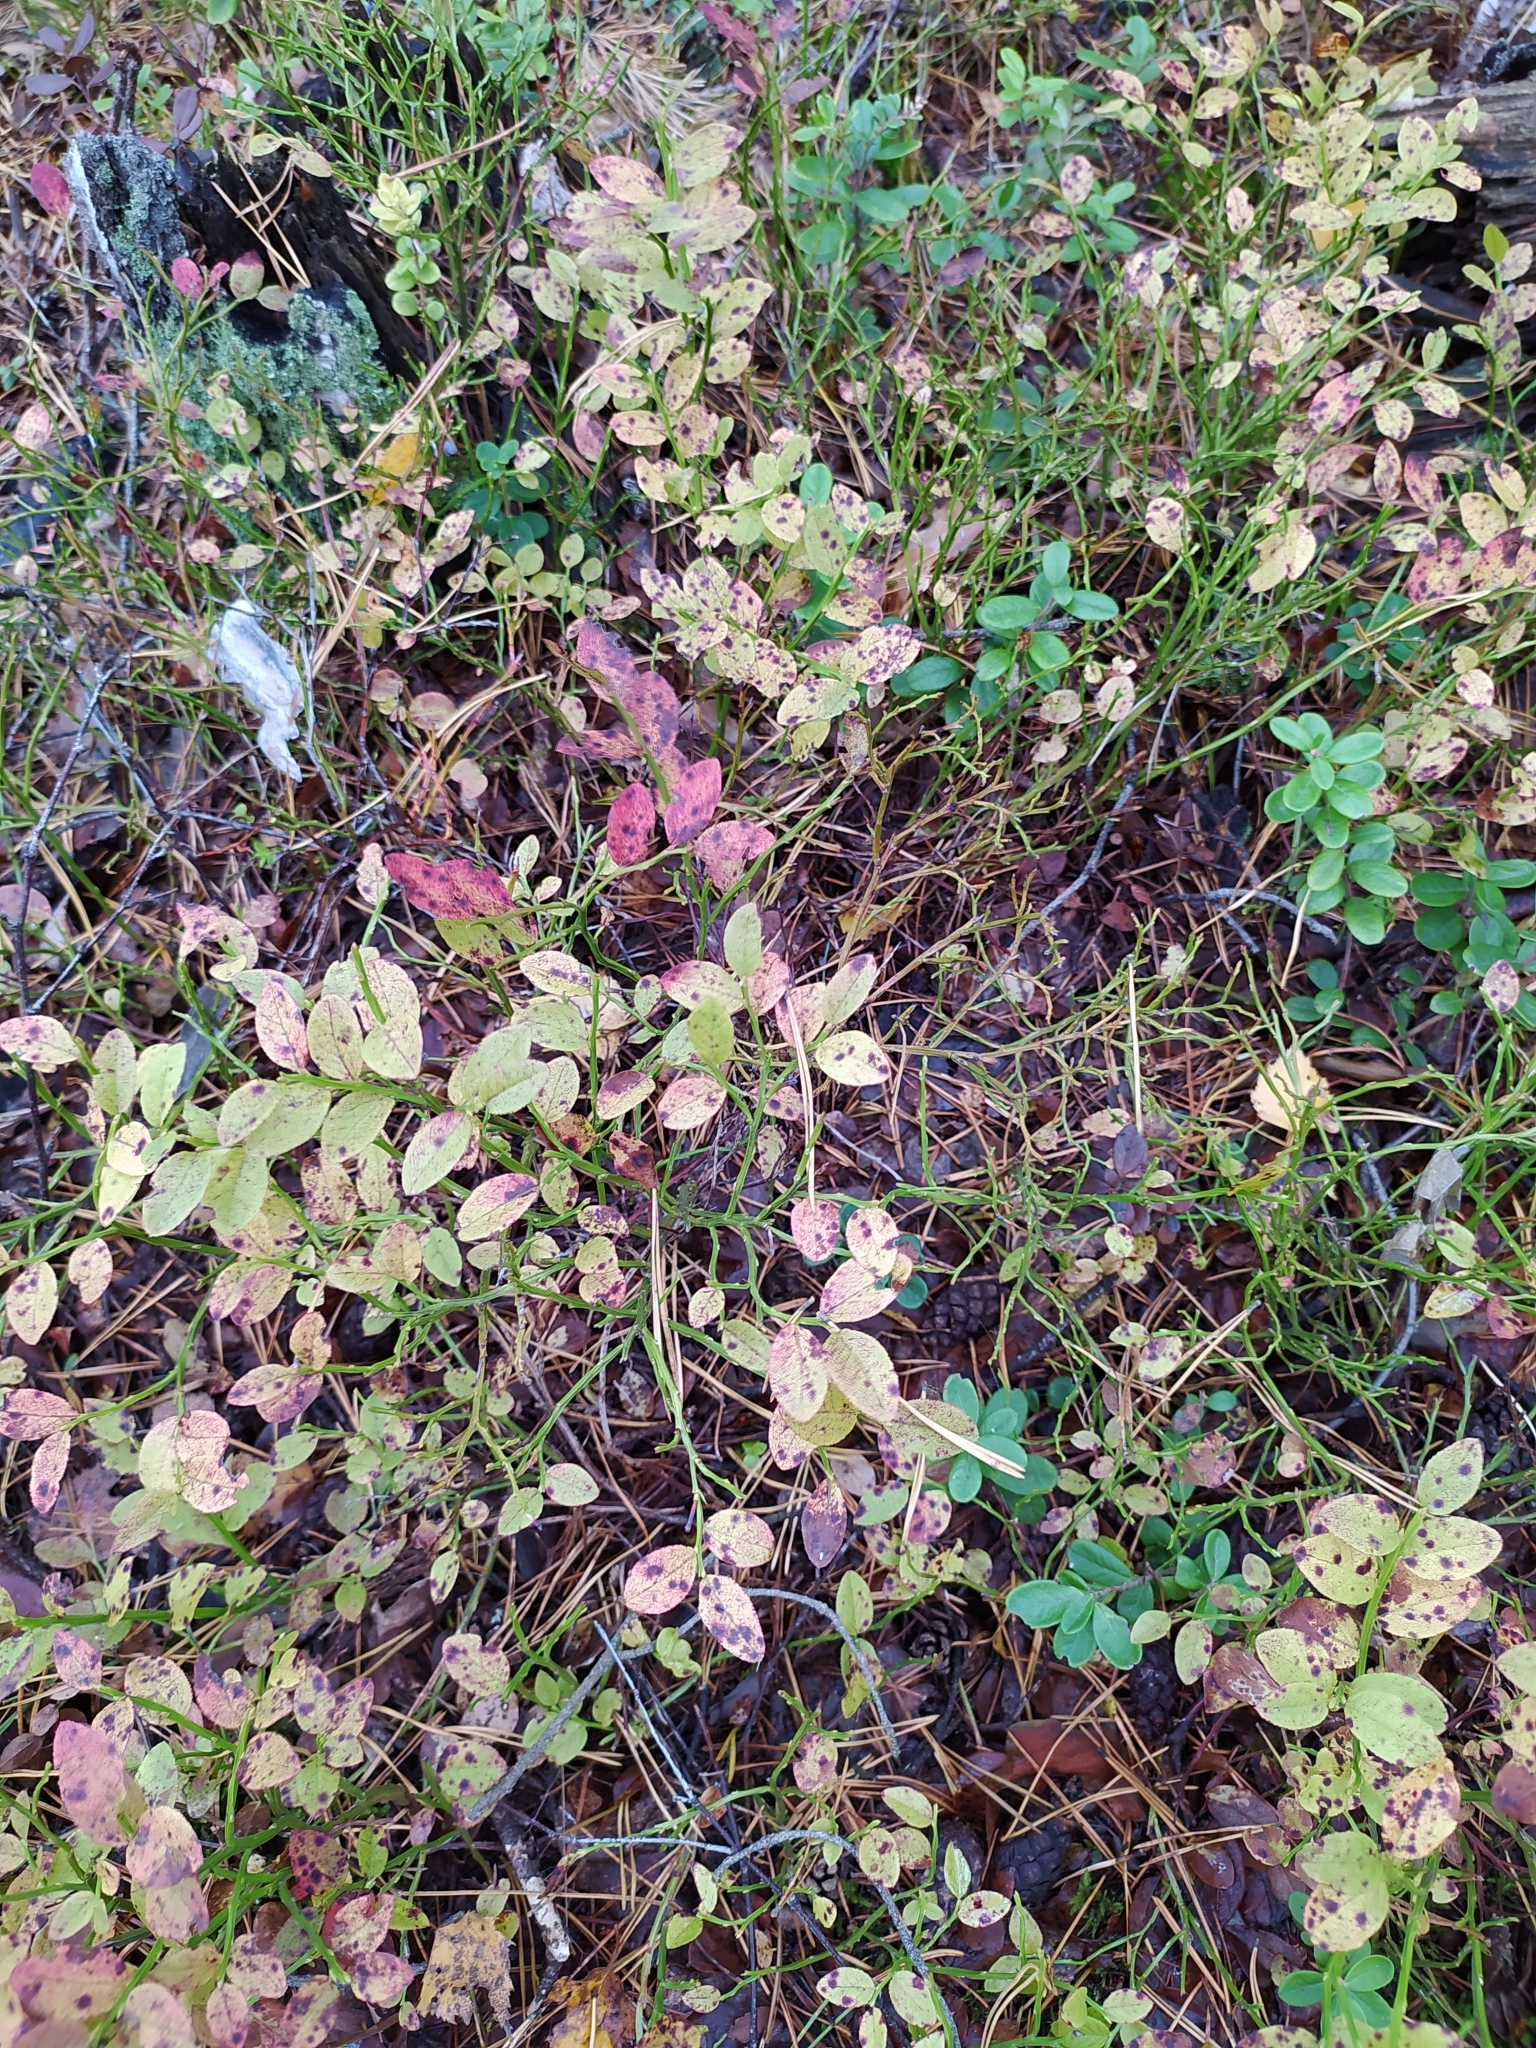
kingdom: Plantae
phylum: Tracheophyta
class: Magnoliopsida
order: Ericales
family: Ericaceae
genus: Vaccinium
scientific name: Vaccinium myrtillus
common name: Bilberry
